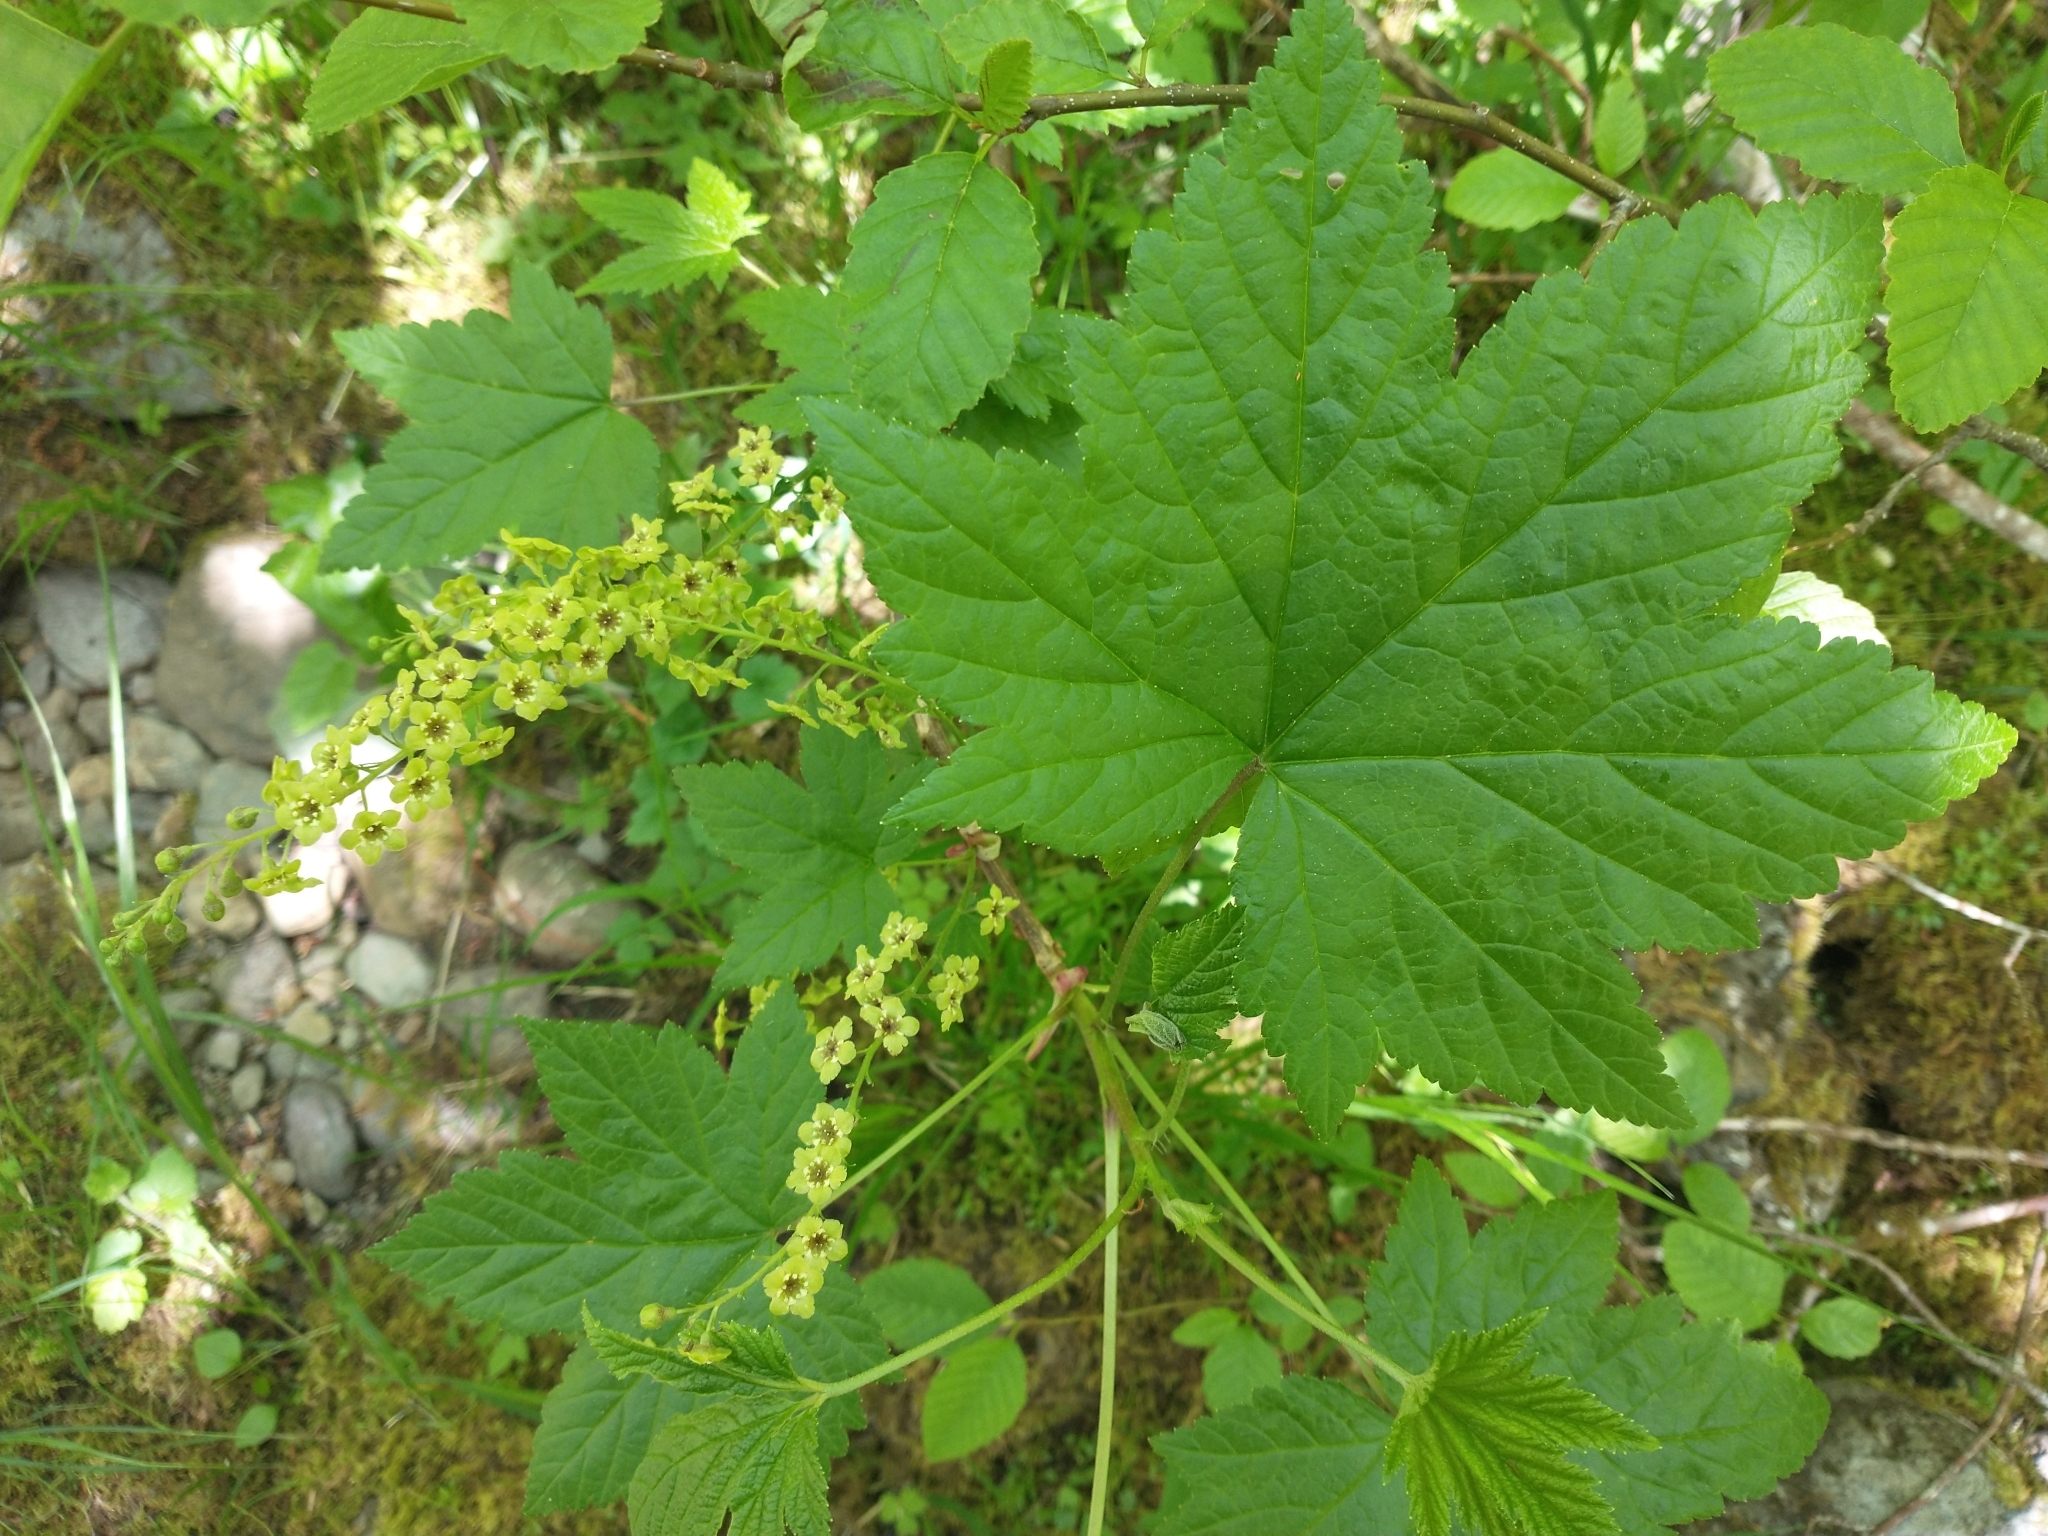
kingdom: Plantae
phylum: Tracheophyta
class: Magnoliopsida
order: Saxifragales
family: Grossulariaceae
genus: Ribes
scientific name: Ribes bracteosum
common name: California black currant
